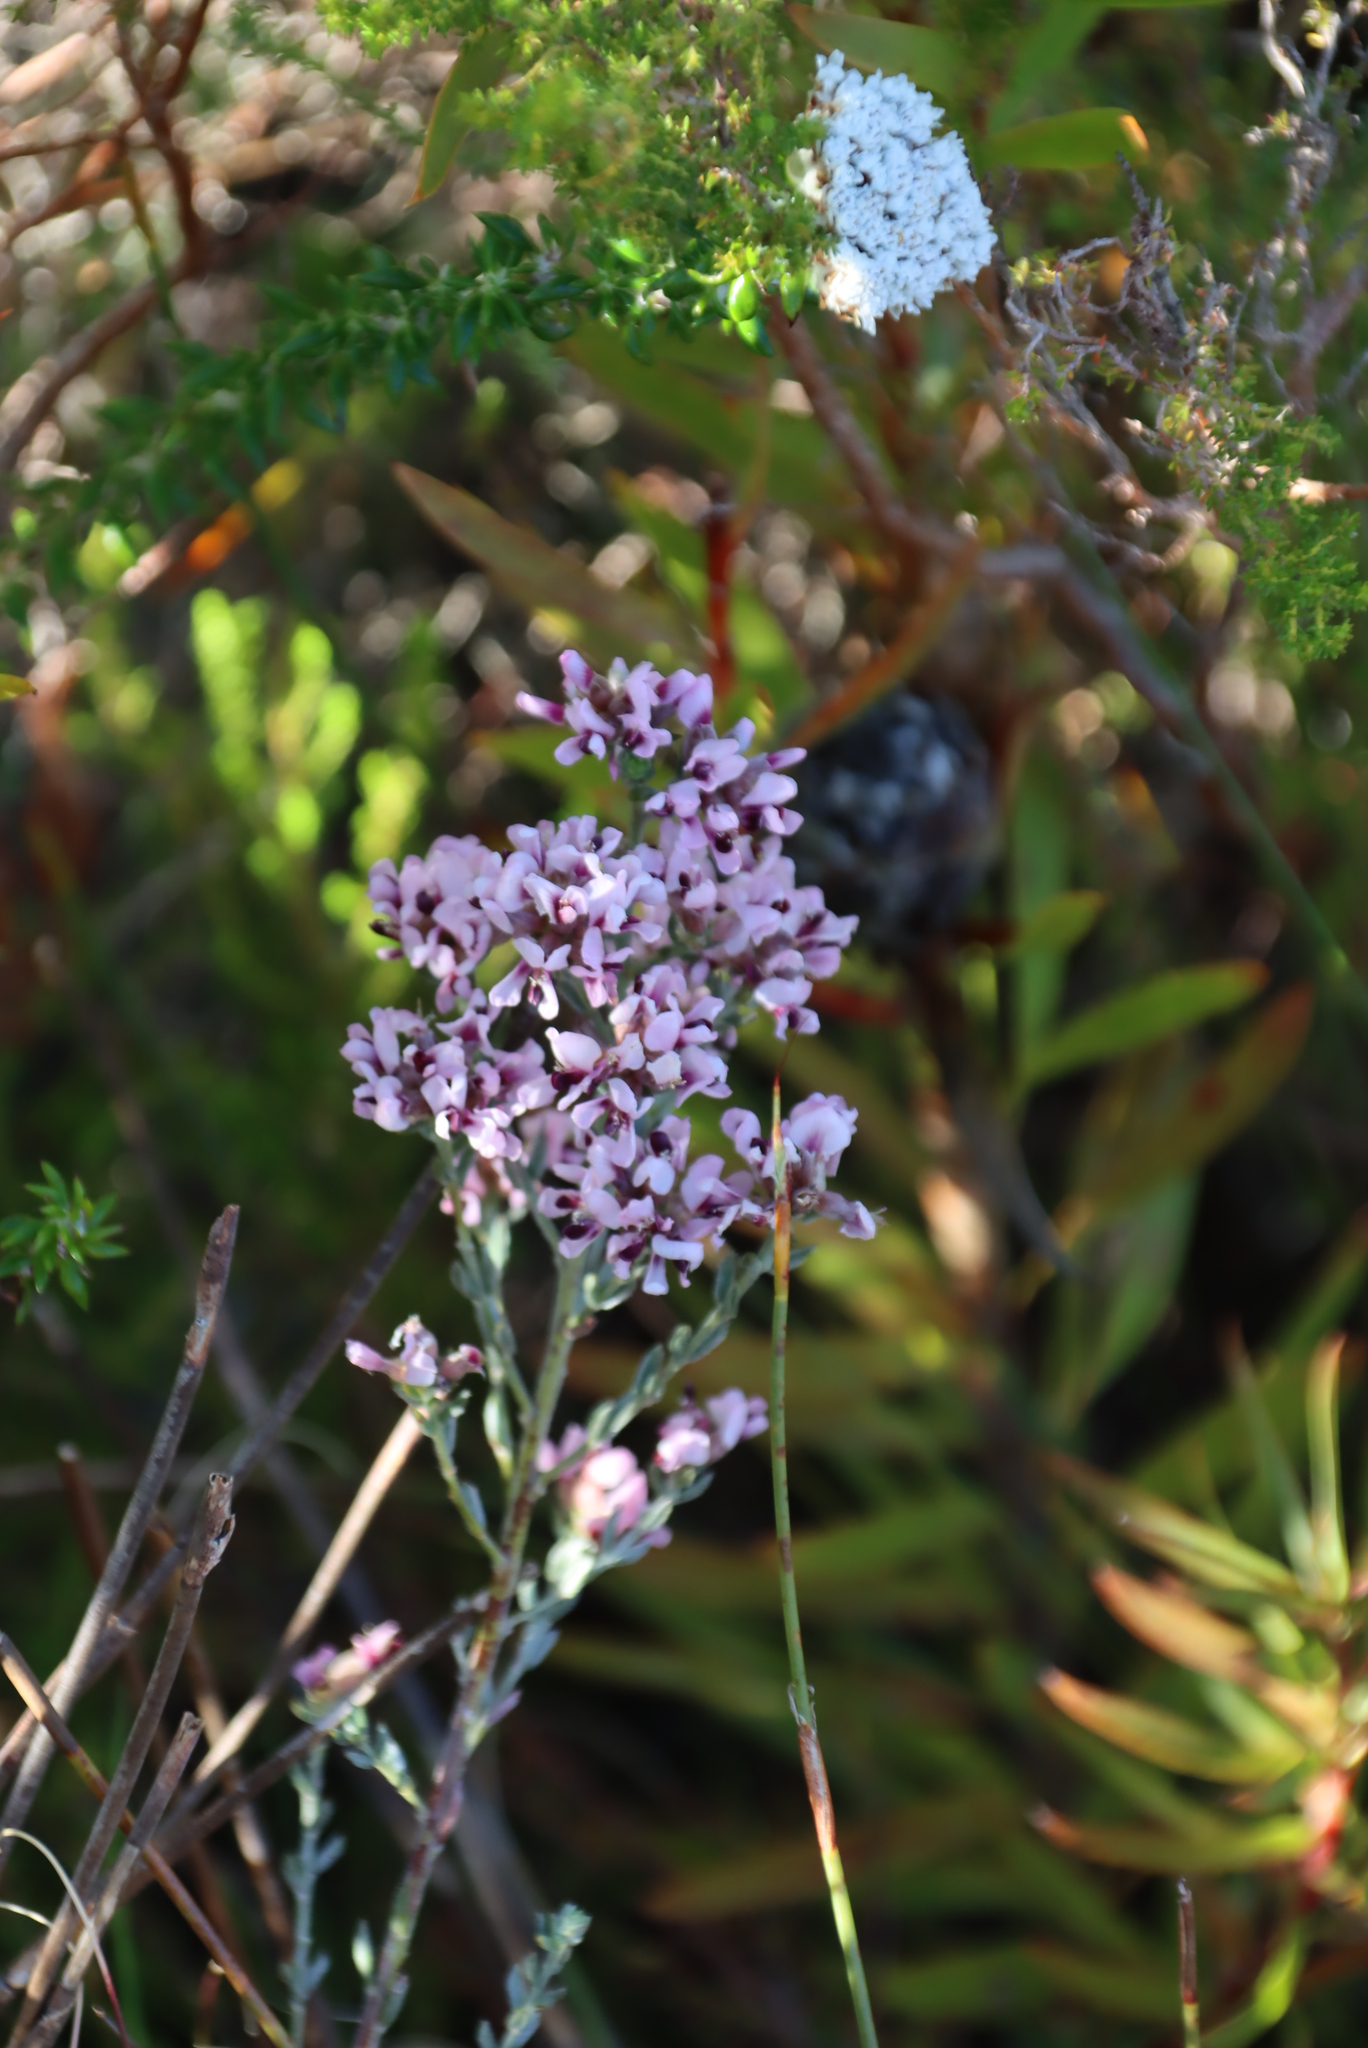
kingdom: Plantae
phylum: Tracheophyta
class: Magnoliopsida
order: Fabales
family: Fabaceae
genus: Amphithalea
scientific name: Amphithalea ericifolia
